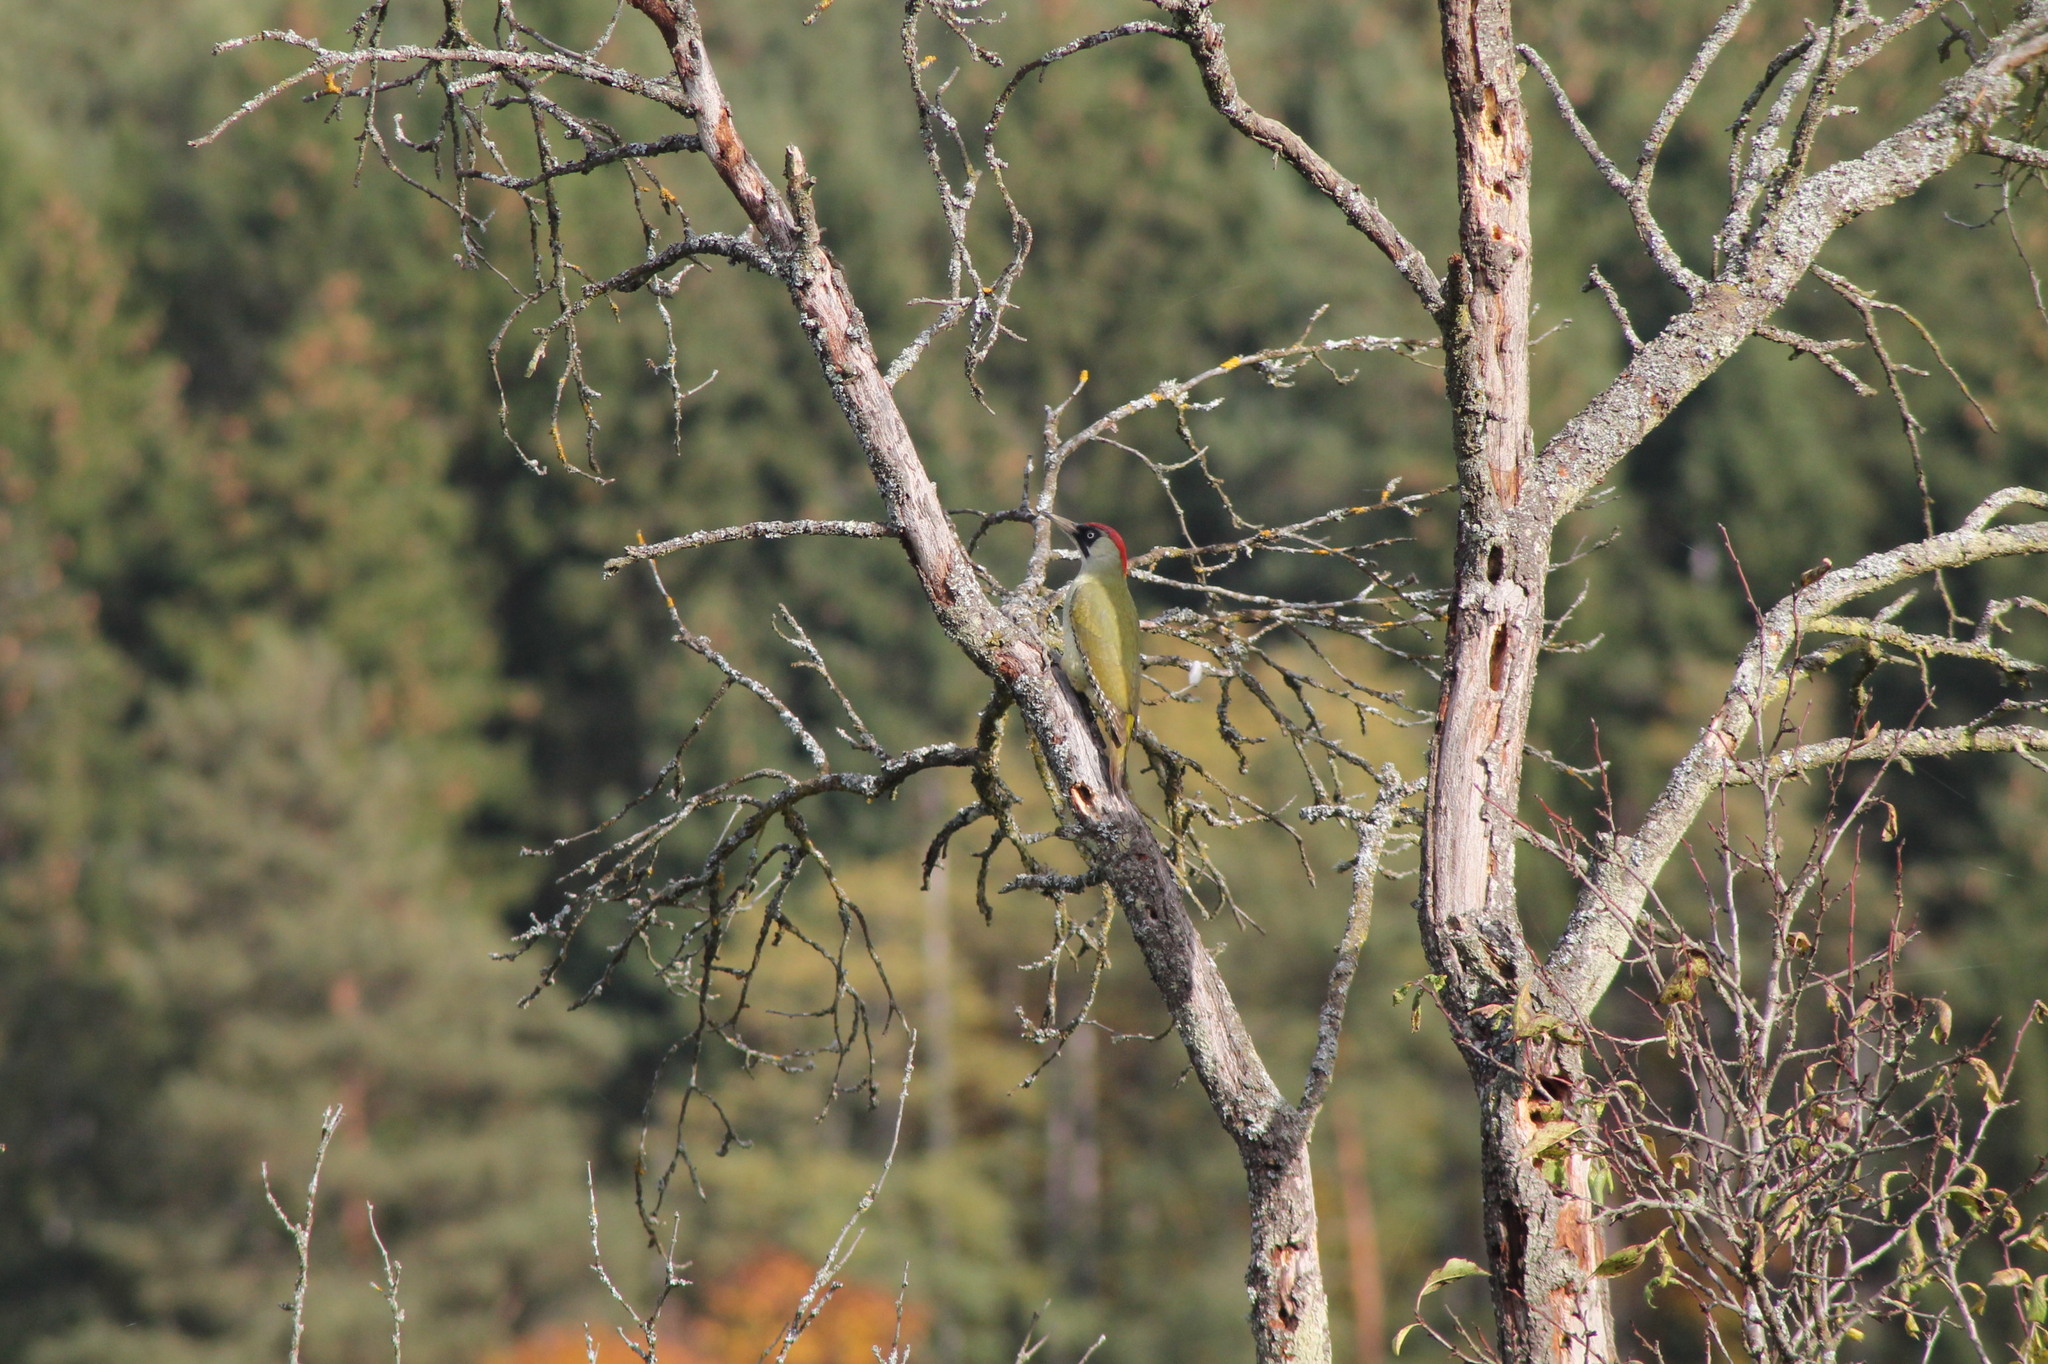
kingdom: Animalia
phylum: Chordata
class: Aves
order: Piciformes
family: Picidae
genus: Picus
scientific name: Picus viridis
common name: European green woodpecker
